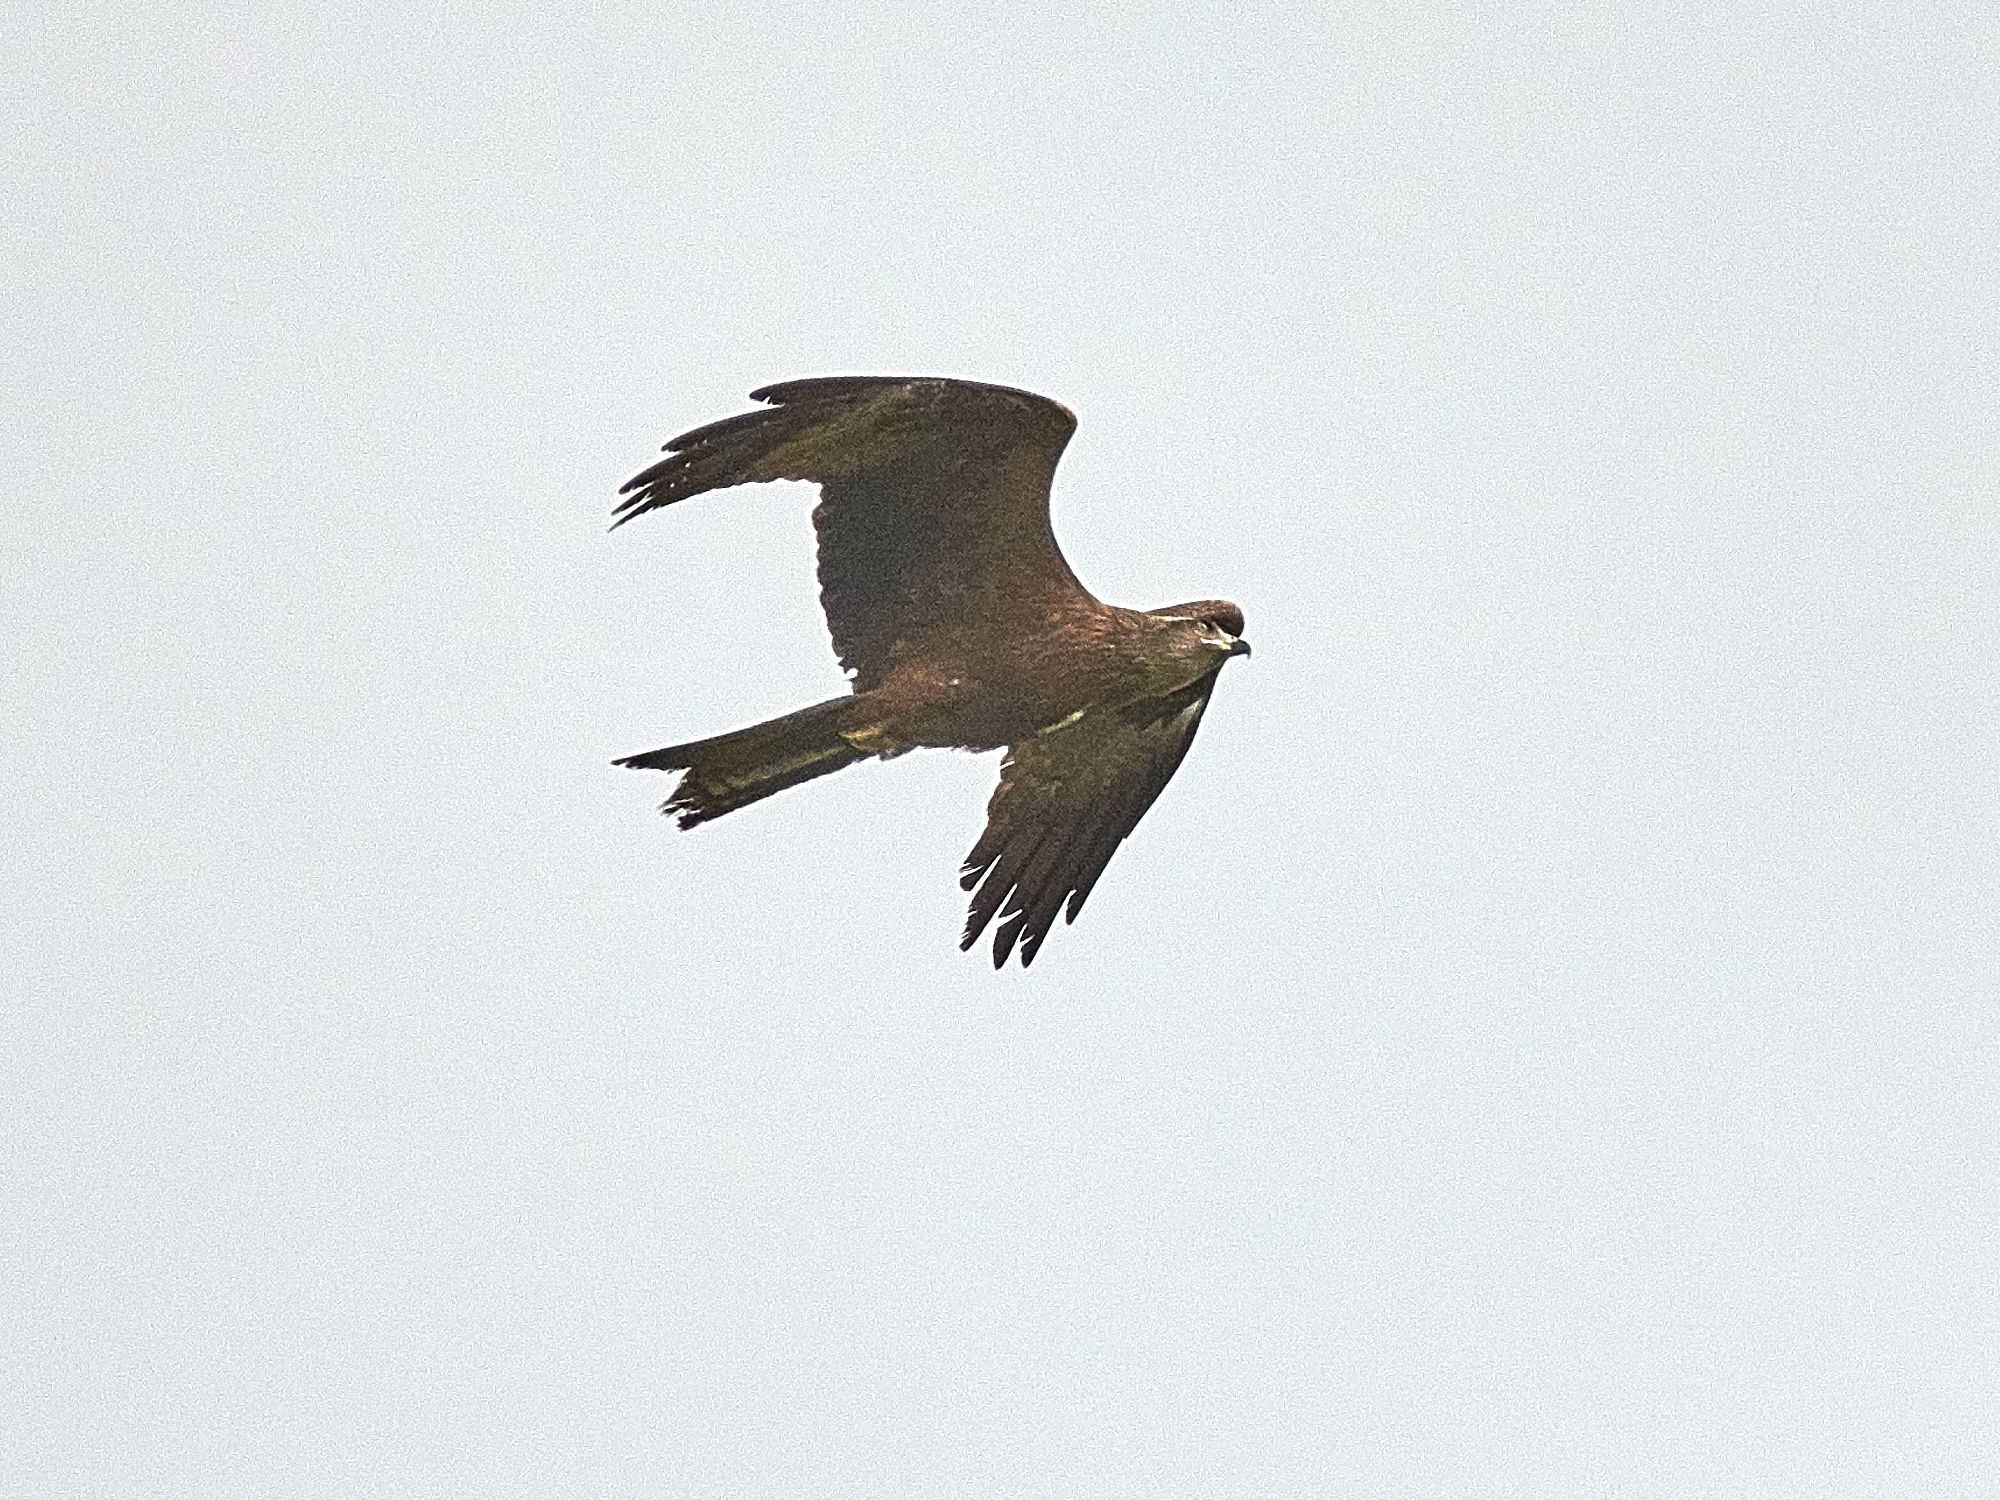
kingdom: Animalia
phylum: Chordata
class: Aves
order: Accipitriformes
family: Accipitridae
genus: Milvus
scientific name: Milvus migrans
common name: Black kite
